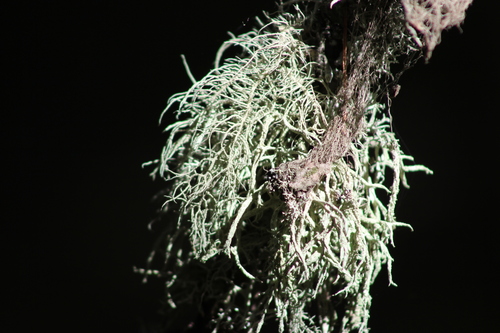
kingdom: Fungi
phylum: Ascomycota
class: Lecanoromycetes
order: Lecanorales
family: Parmeliaceae
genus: Evernia
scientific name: Evernia mesomorpha
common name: Boreal oak moss lichen
